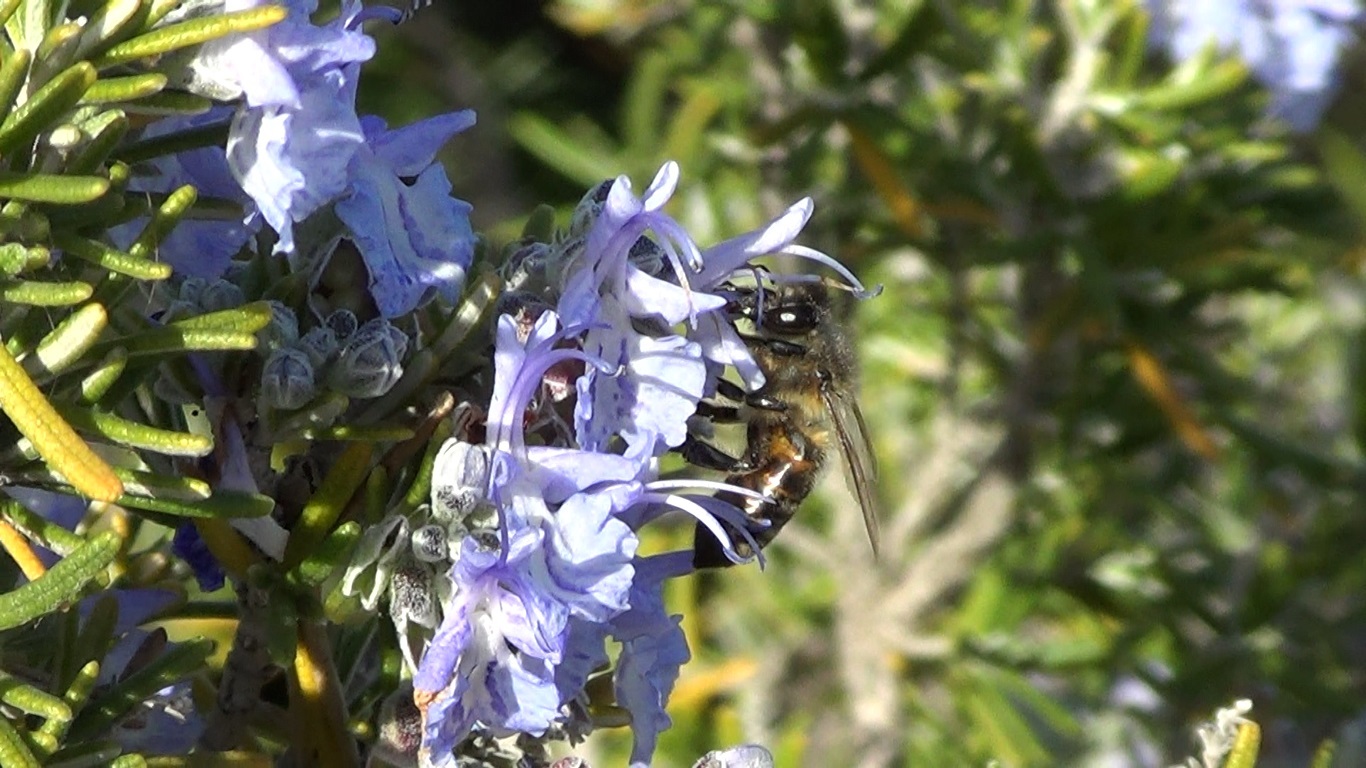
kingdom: Animalia
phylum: Arthropoda
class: Insecta
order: Hymenoptera
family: Apidae
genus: Apis
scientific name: Apis mellifera
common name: Honey bee
